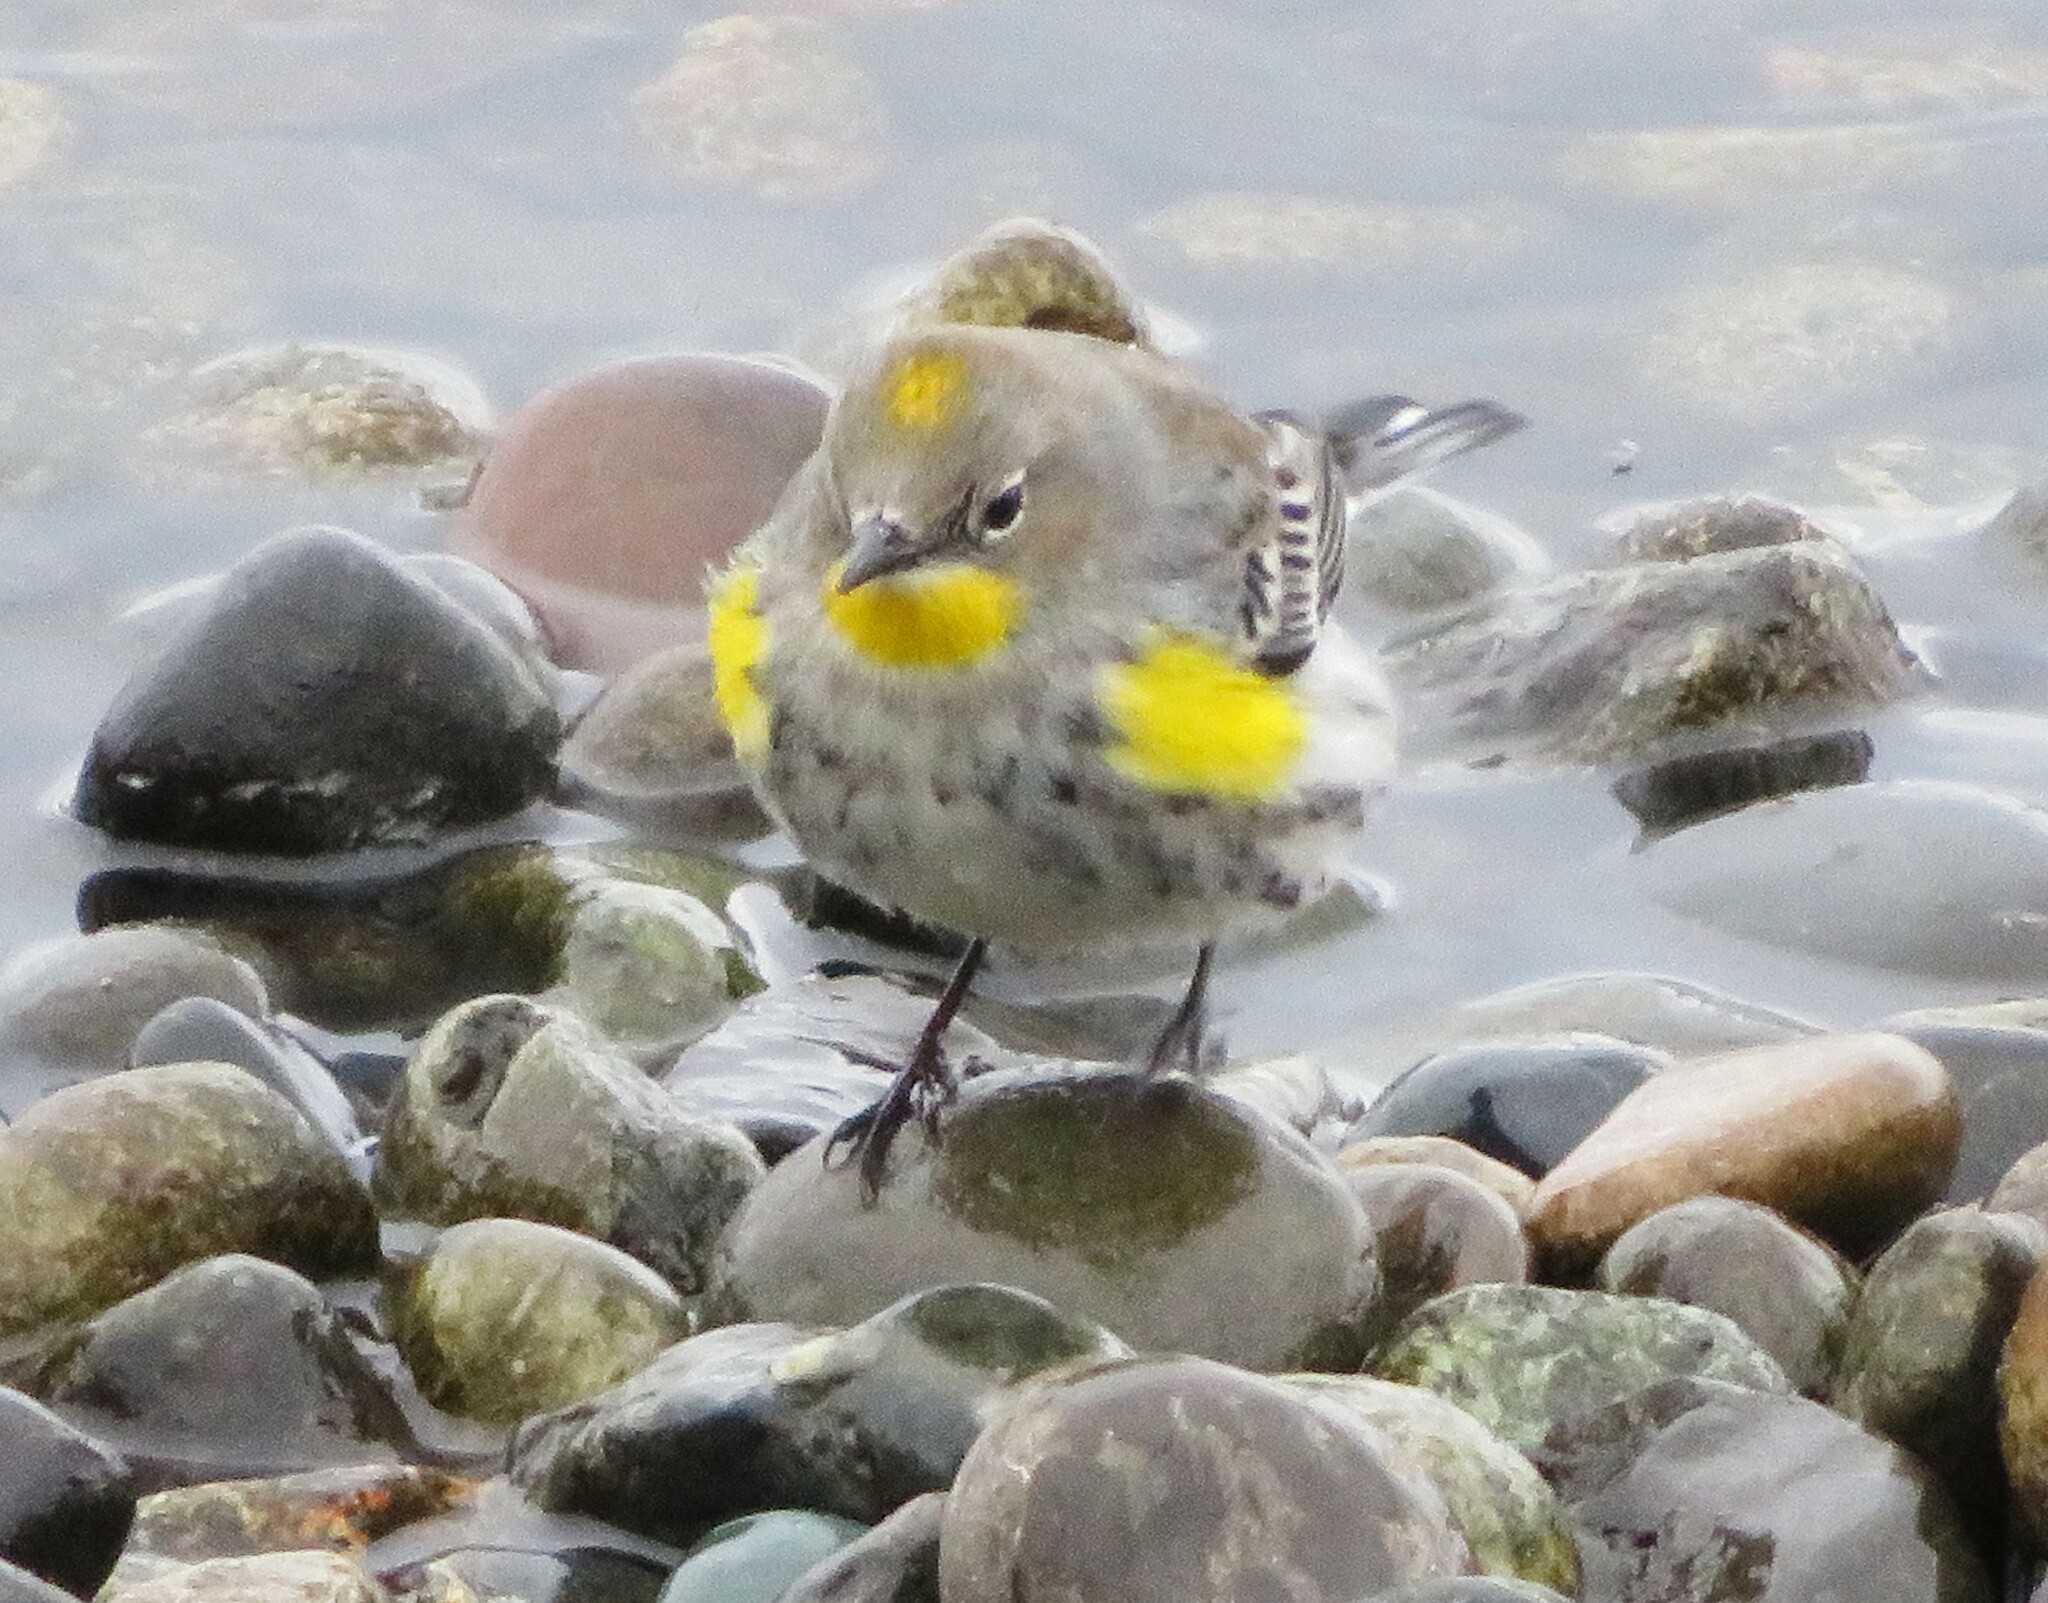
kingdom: Animalia
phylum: Chordata
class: Aves
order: Passeriformes
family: Parulidae
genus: Setophaga
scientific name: Setophaga auduboni
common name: Audubon's warbler
